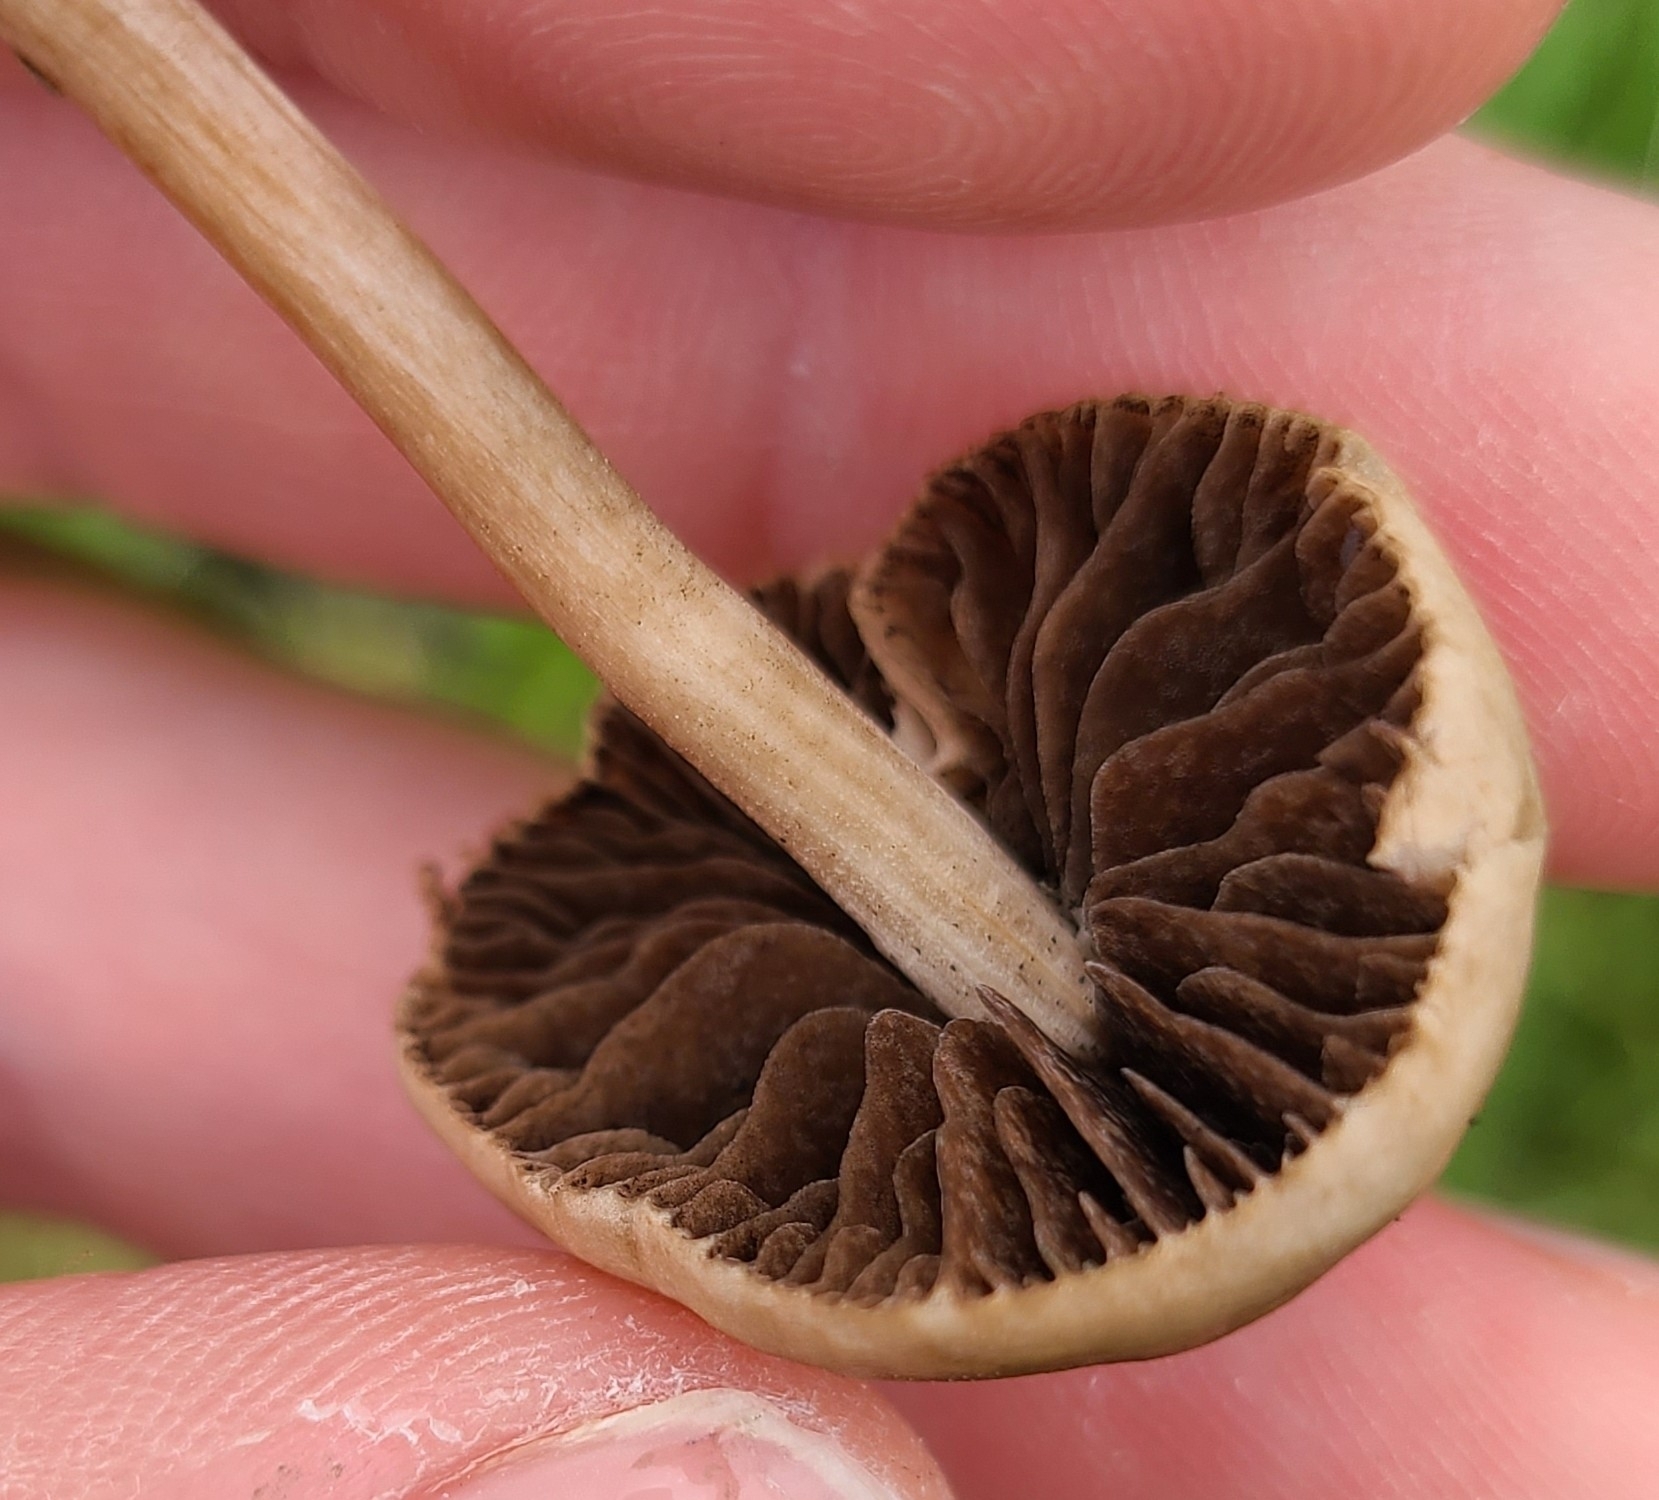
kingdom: Fungi
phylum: Basidiomycota
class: Agaricomycetes
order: Agaricales
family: Bolbitiaceae
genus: Panaeolina
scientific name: Panaeolina foenisecii
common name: Brown hay cap
